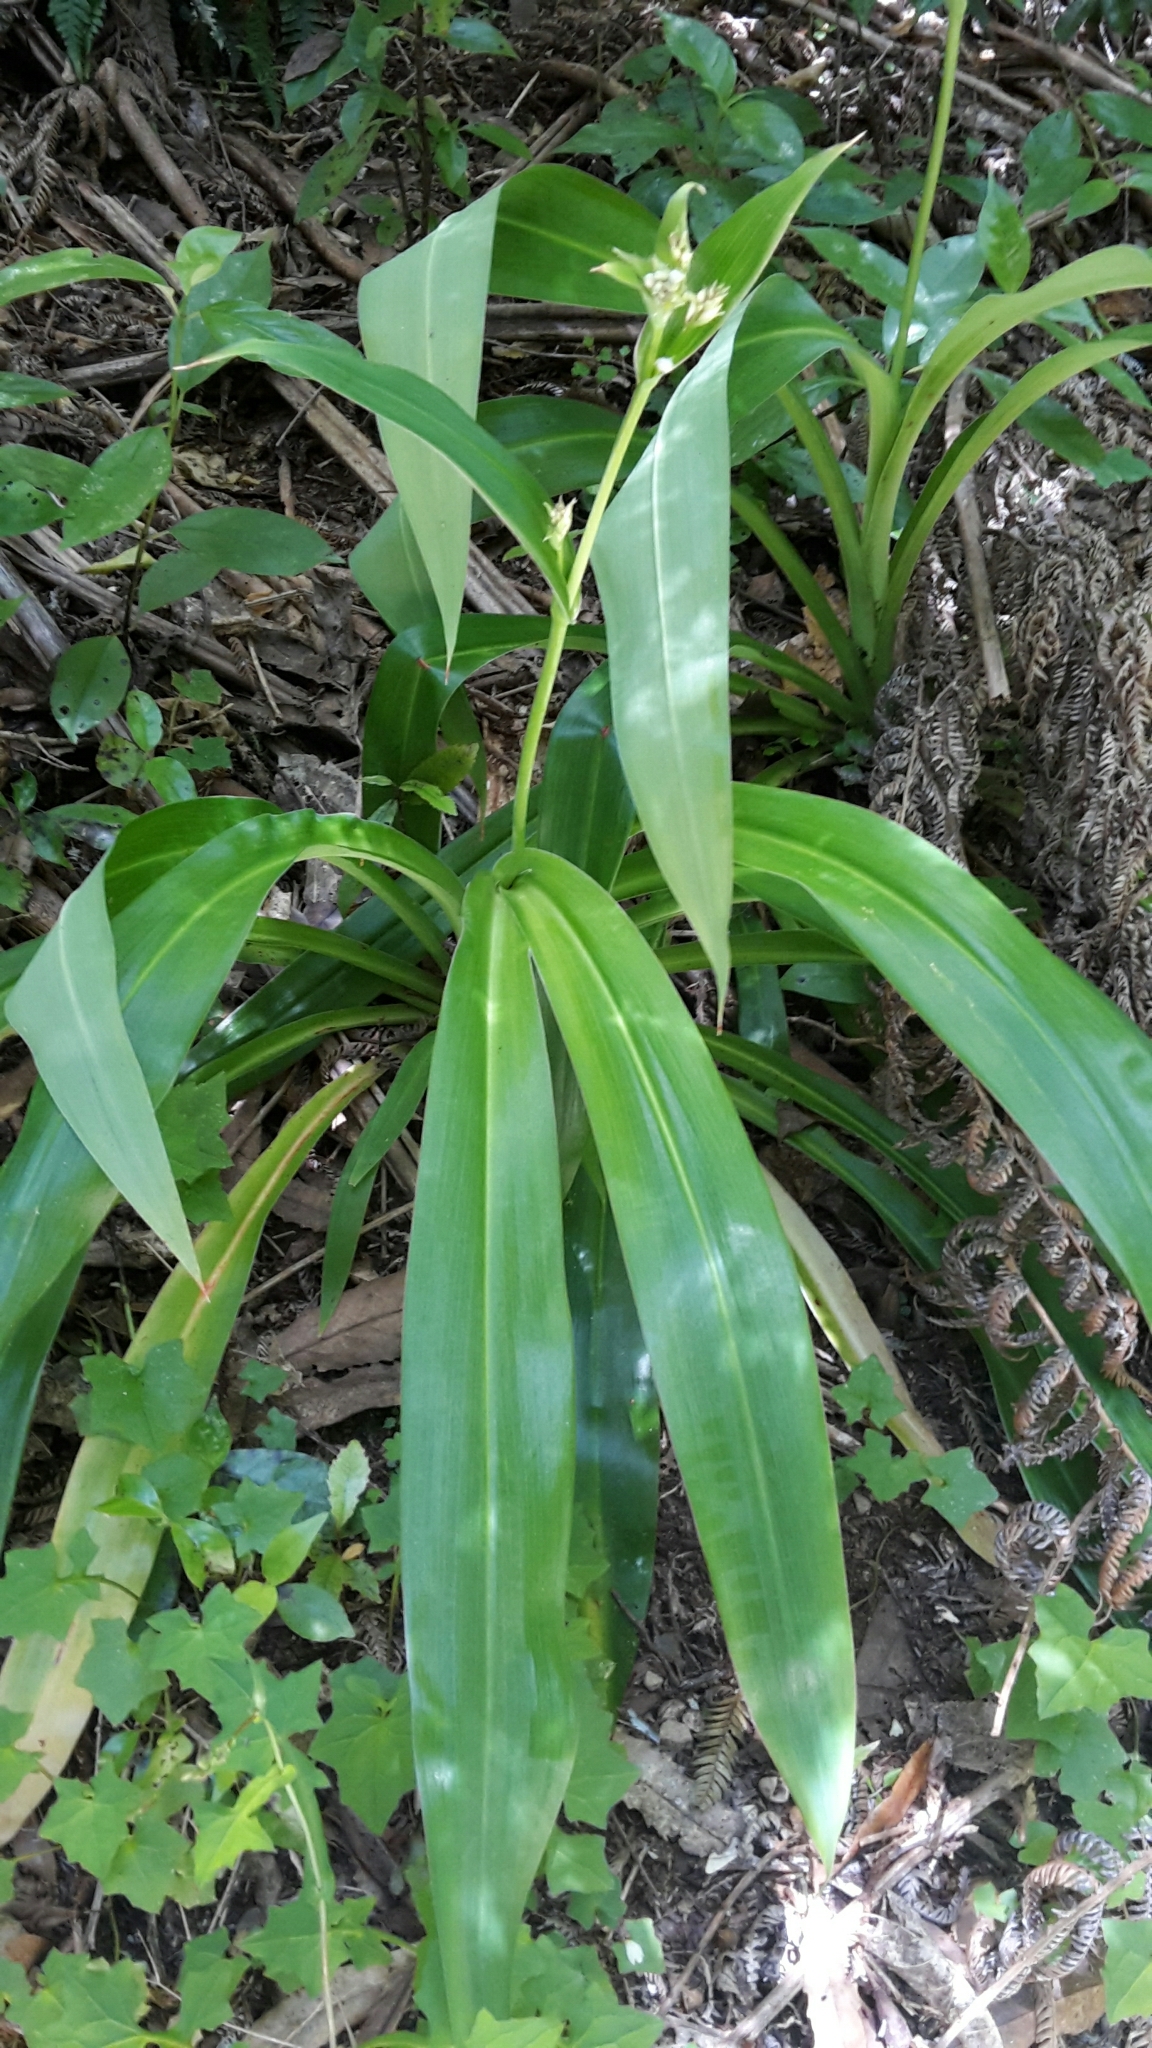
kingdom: Plantae
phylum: Tracheophyta
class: Liliopsida
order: Asparagales
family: Asparagaceae
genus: Arthropodium
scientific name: Arthropodium cirratum
